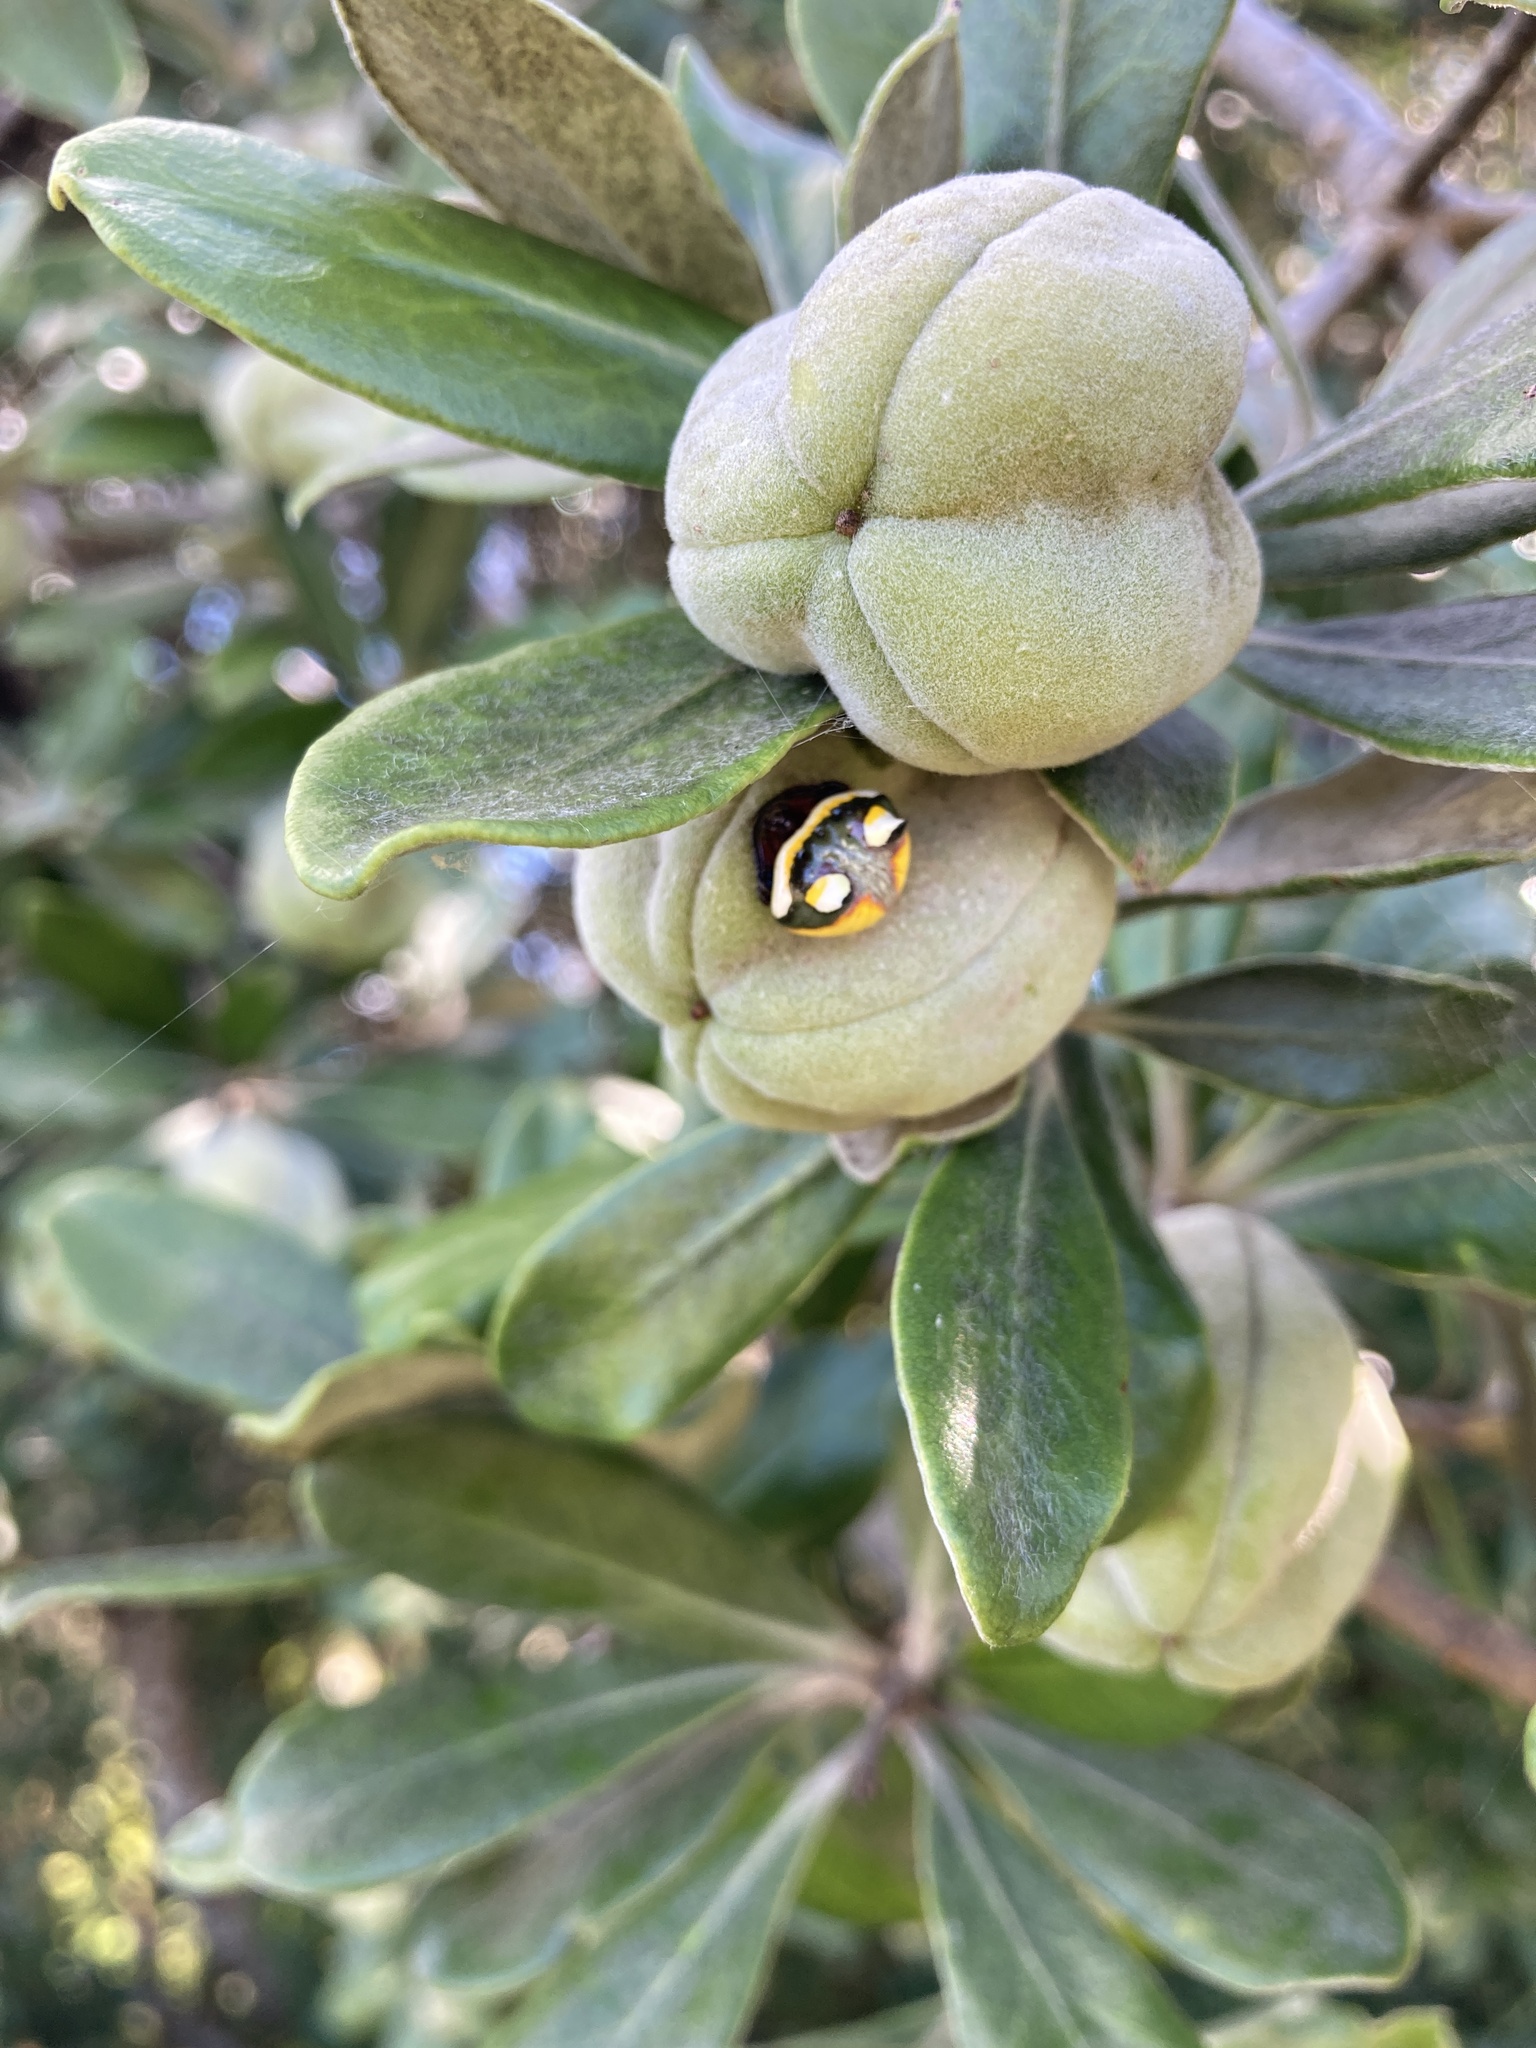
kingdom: Animalia
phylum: Arthropoda
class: Arachnida
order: Araneae
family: Araneidae
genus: Poecilopachys
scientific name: Poecilopachys australasia
